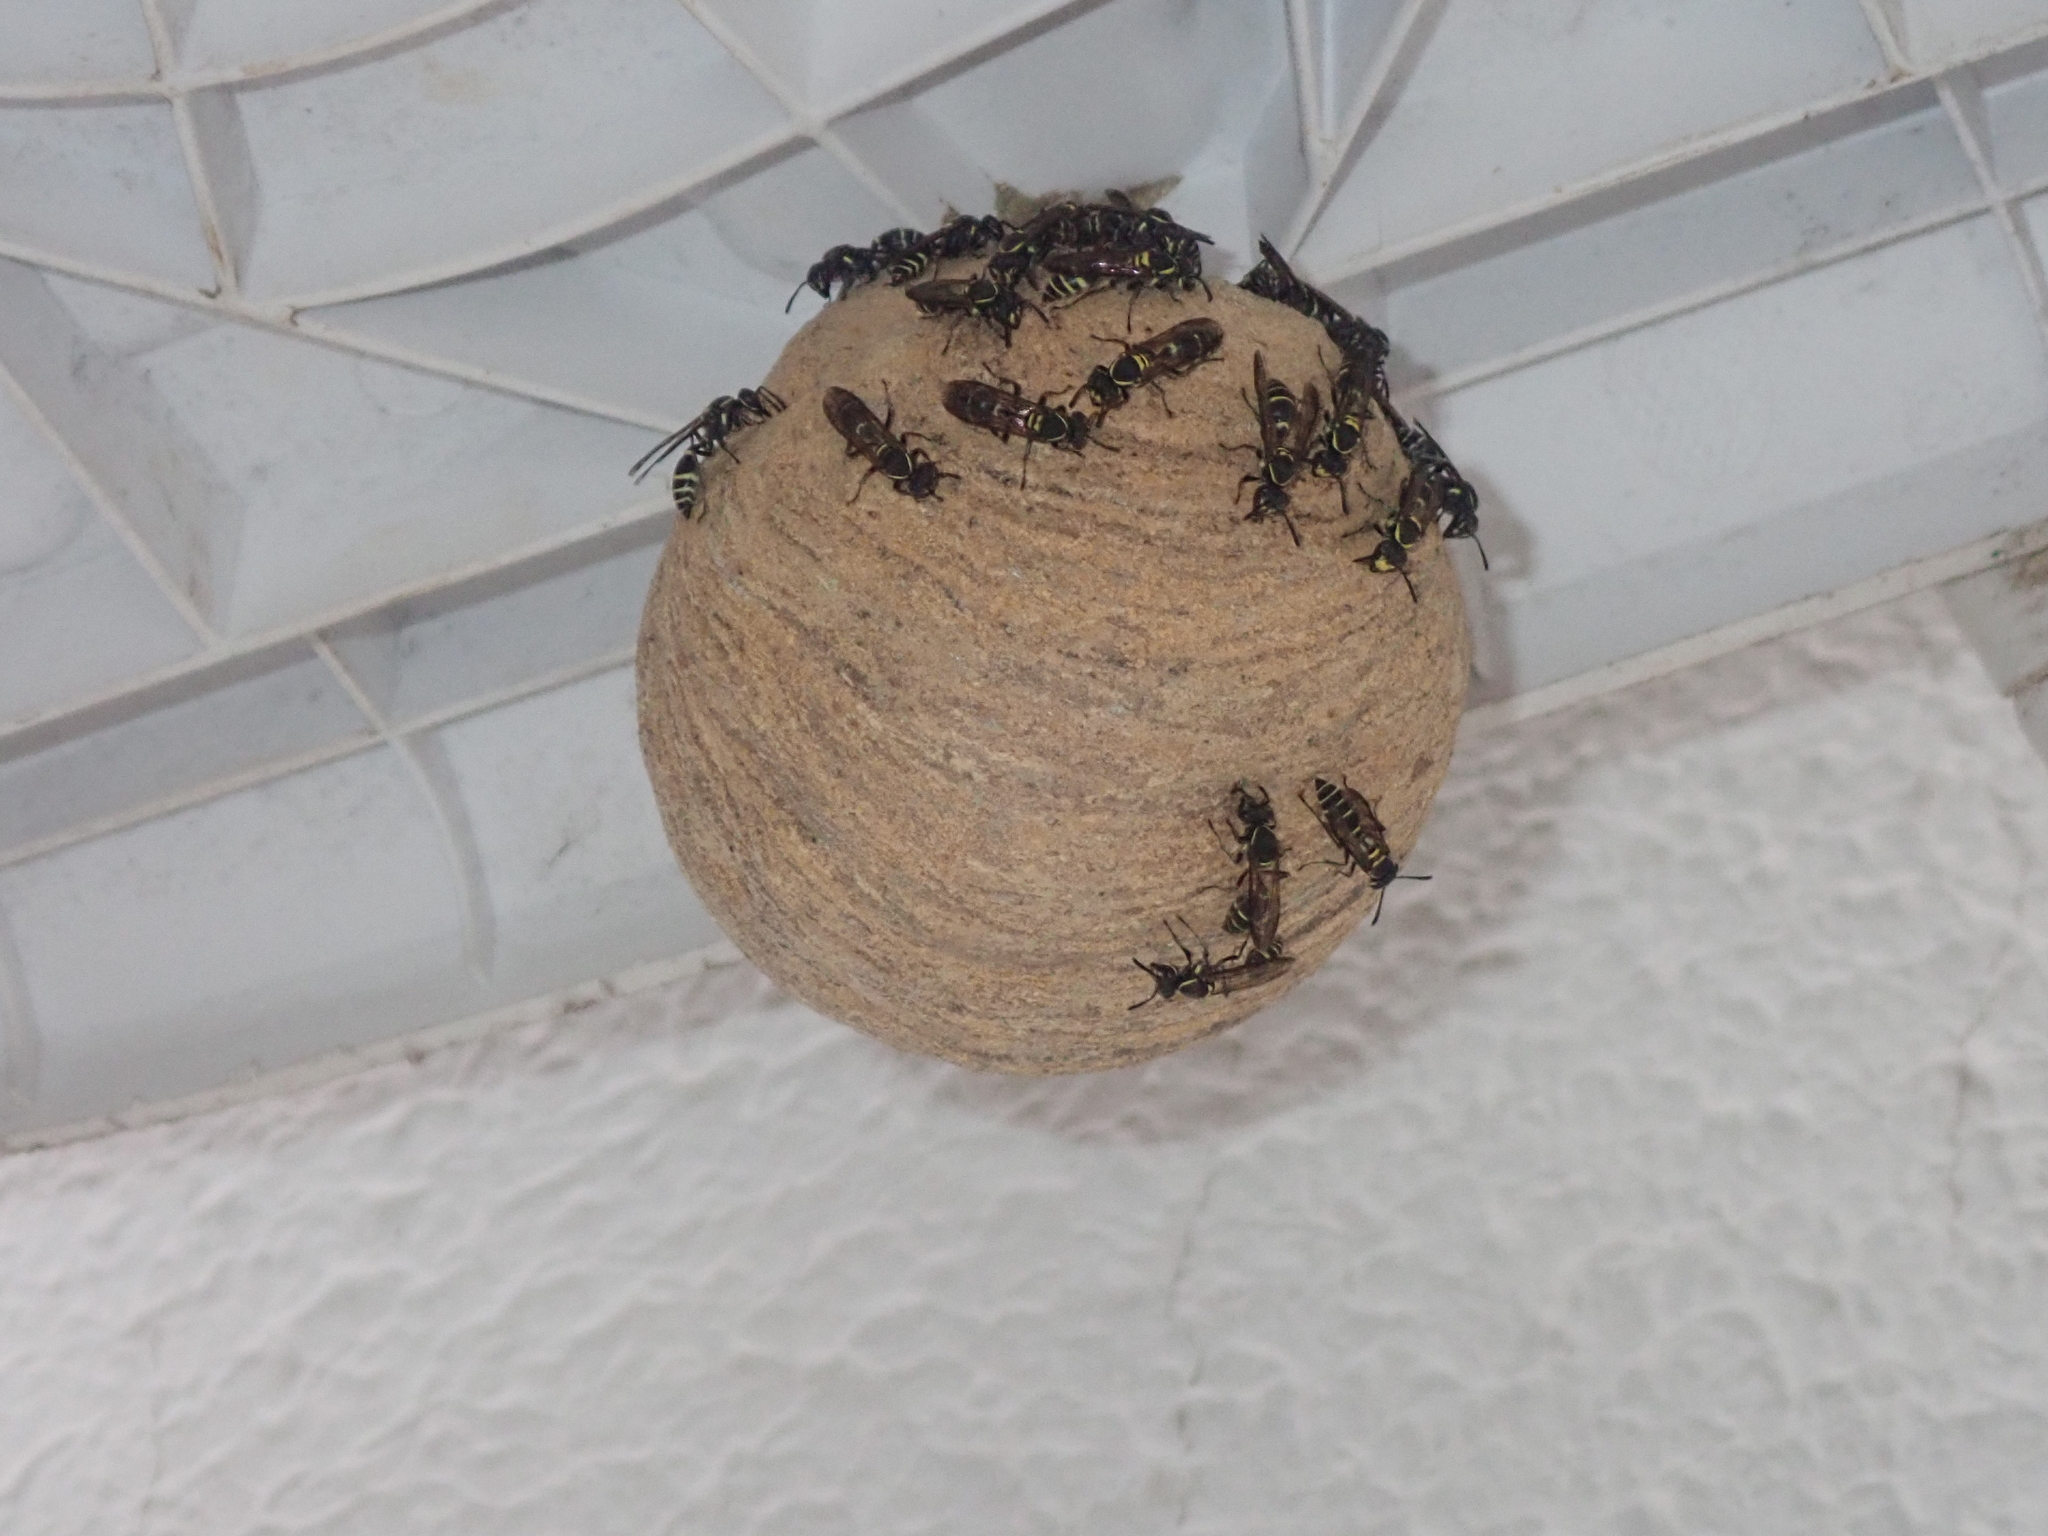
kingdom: Animalia
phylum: Arthropoda
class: Insecta
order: Hymenoptera
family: Eumenidae
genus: Polybia
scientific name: Polybia occidentalis
